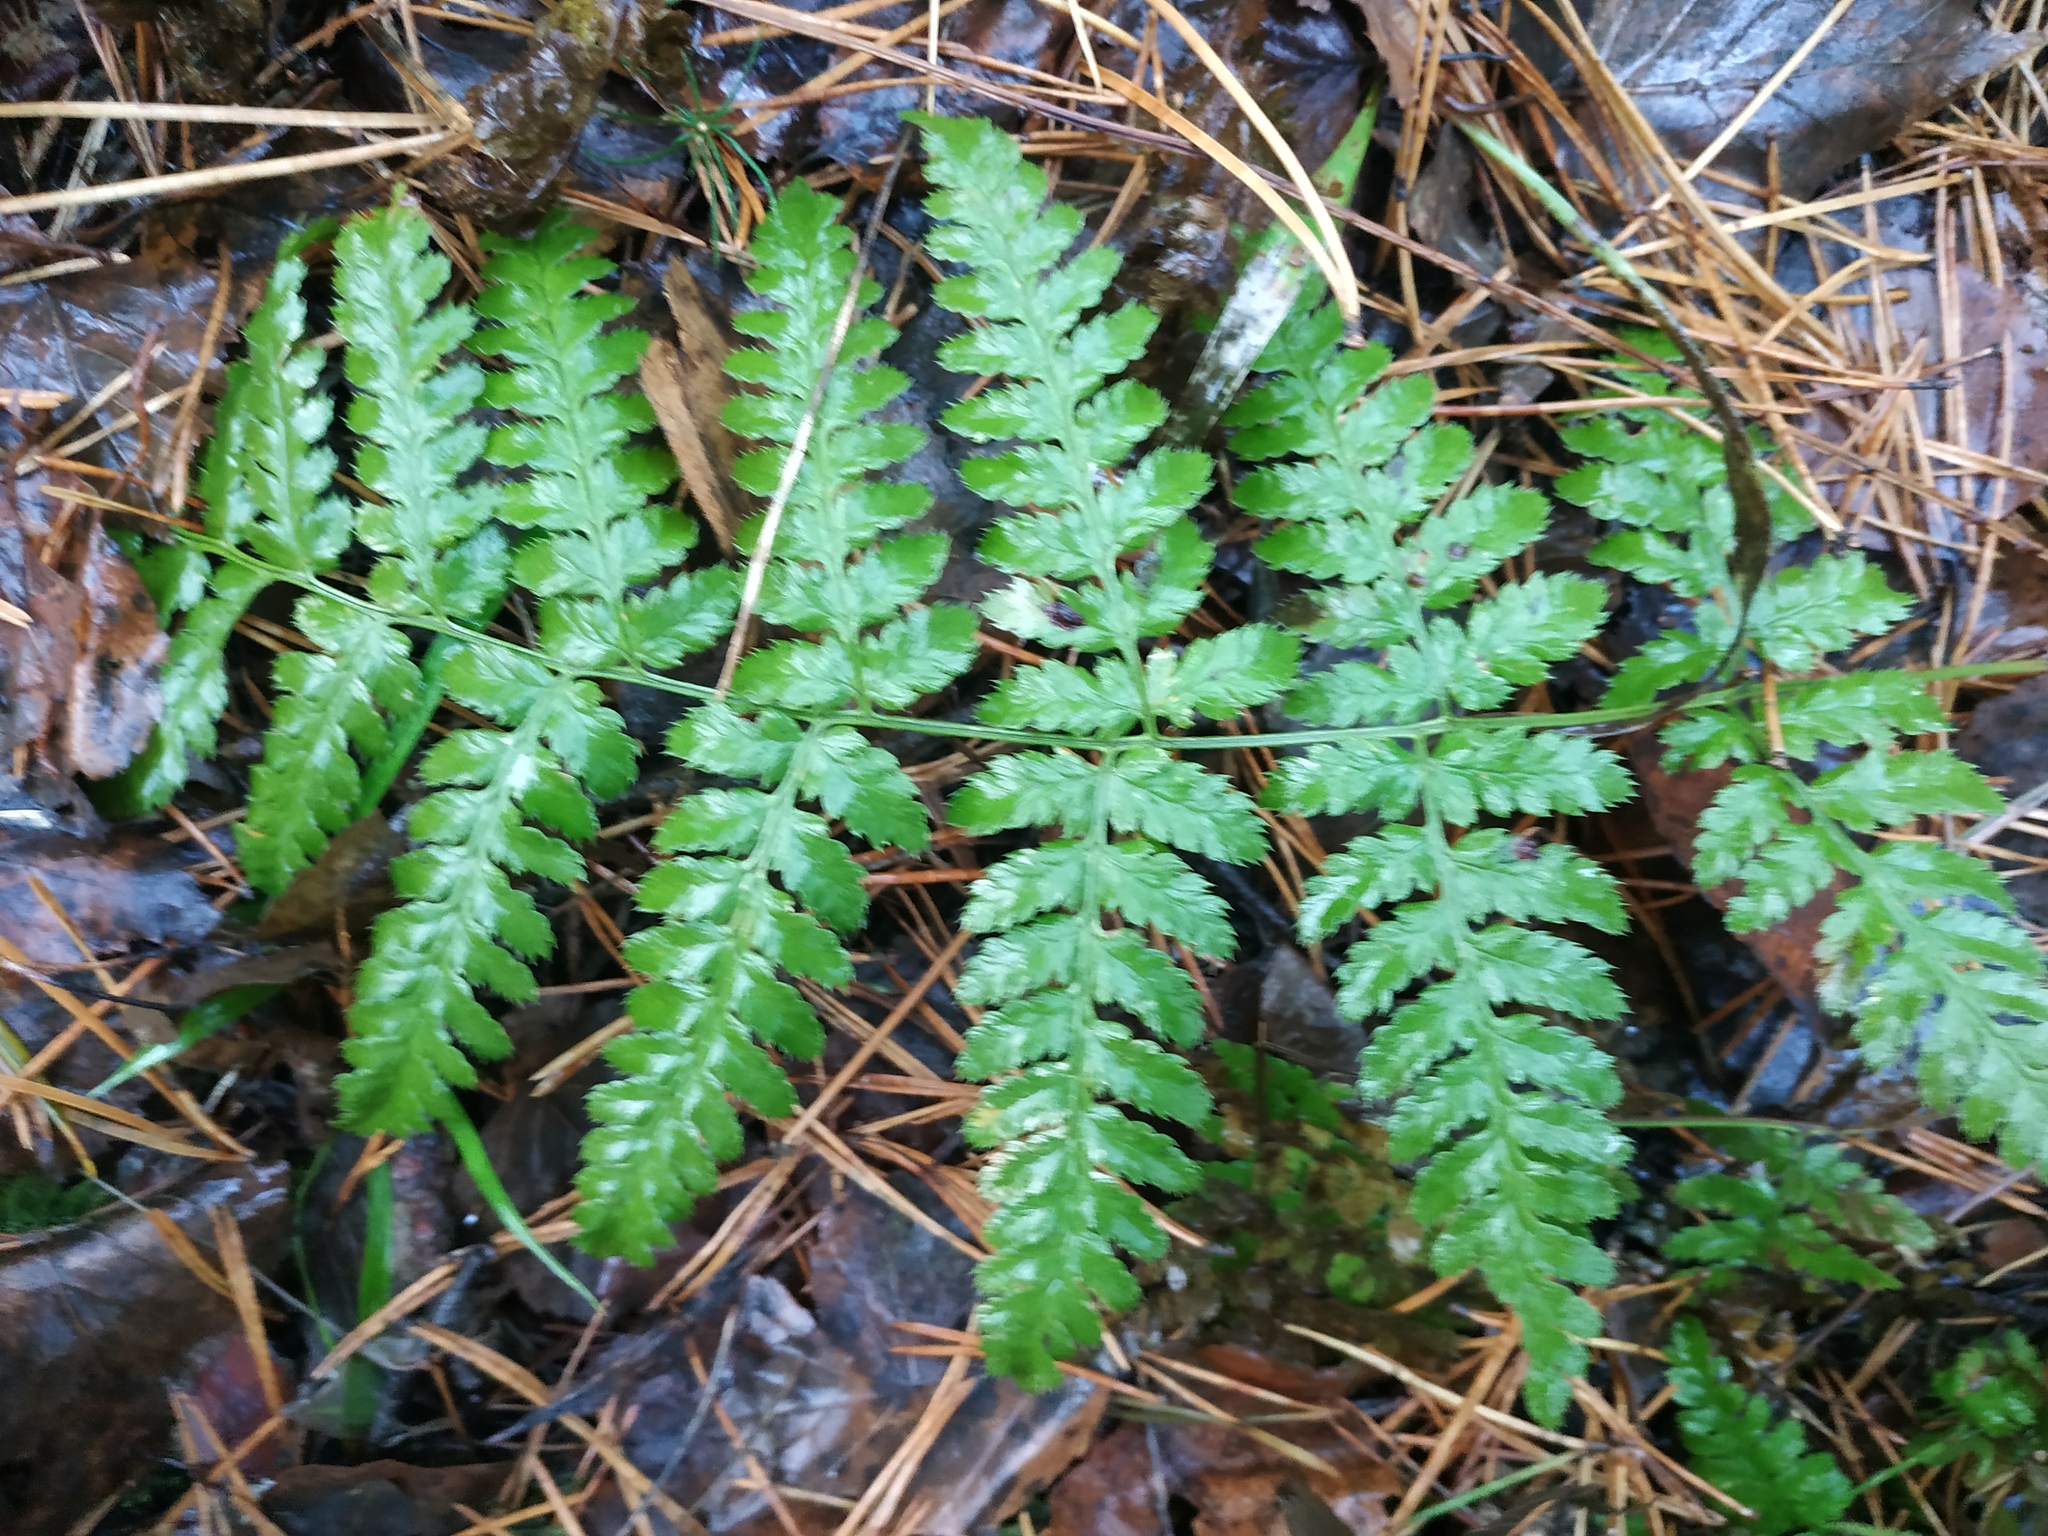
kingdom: Plantae
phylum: Tracheophyta
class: Polypodiopsida
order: Polypodiales
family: Dryopteridaceae
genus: Dryopteris
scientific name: Dryopteris carthusiana
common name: Narrow buckler-fern
